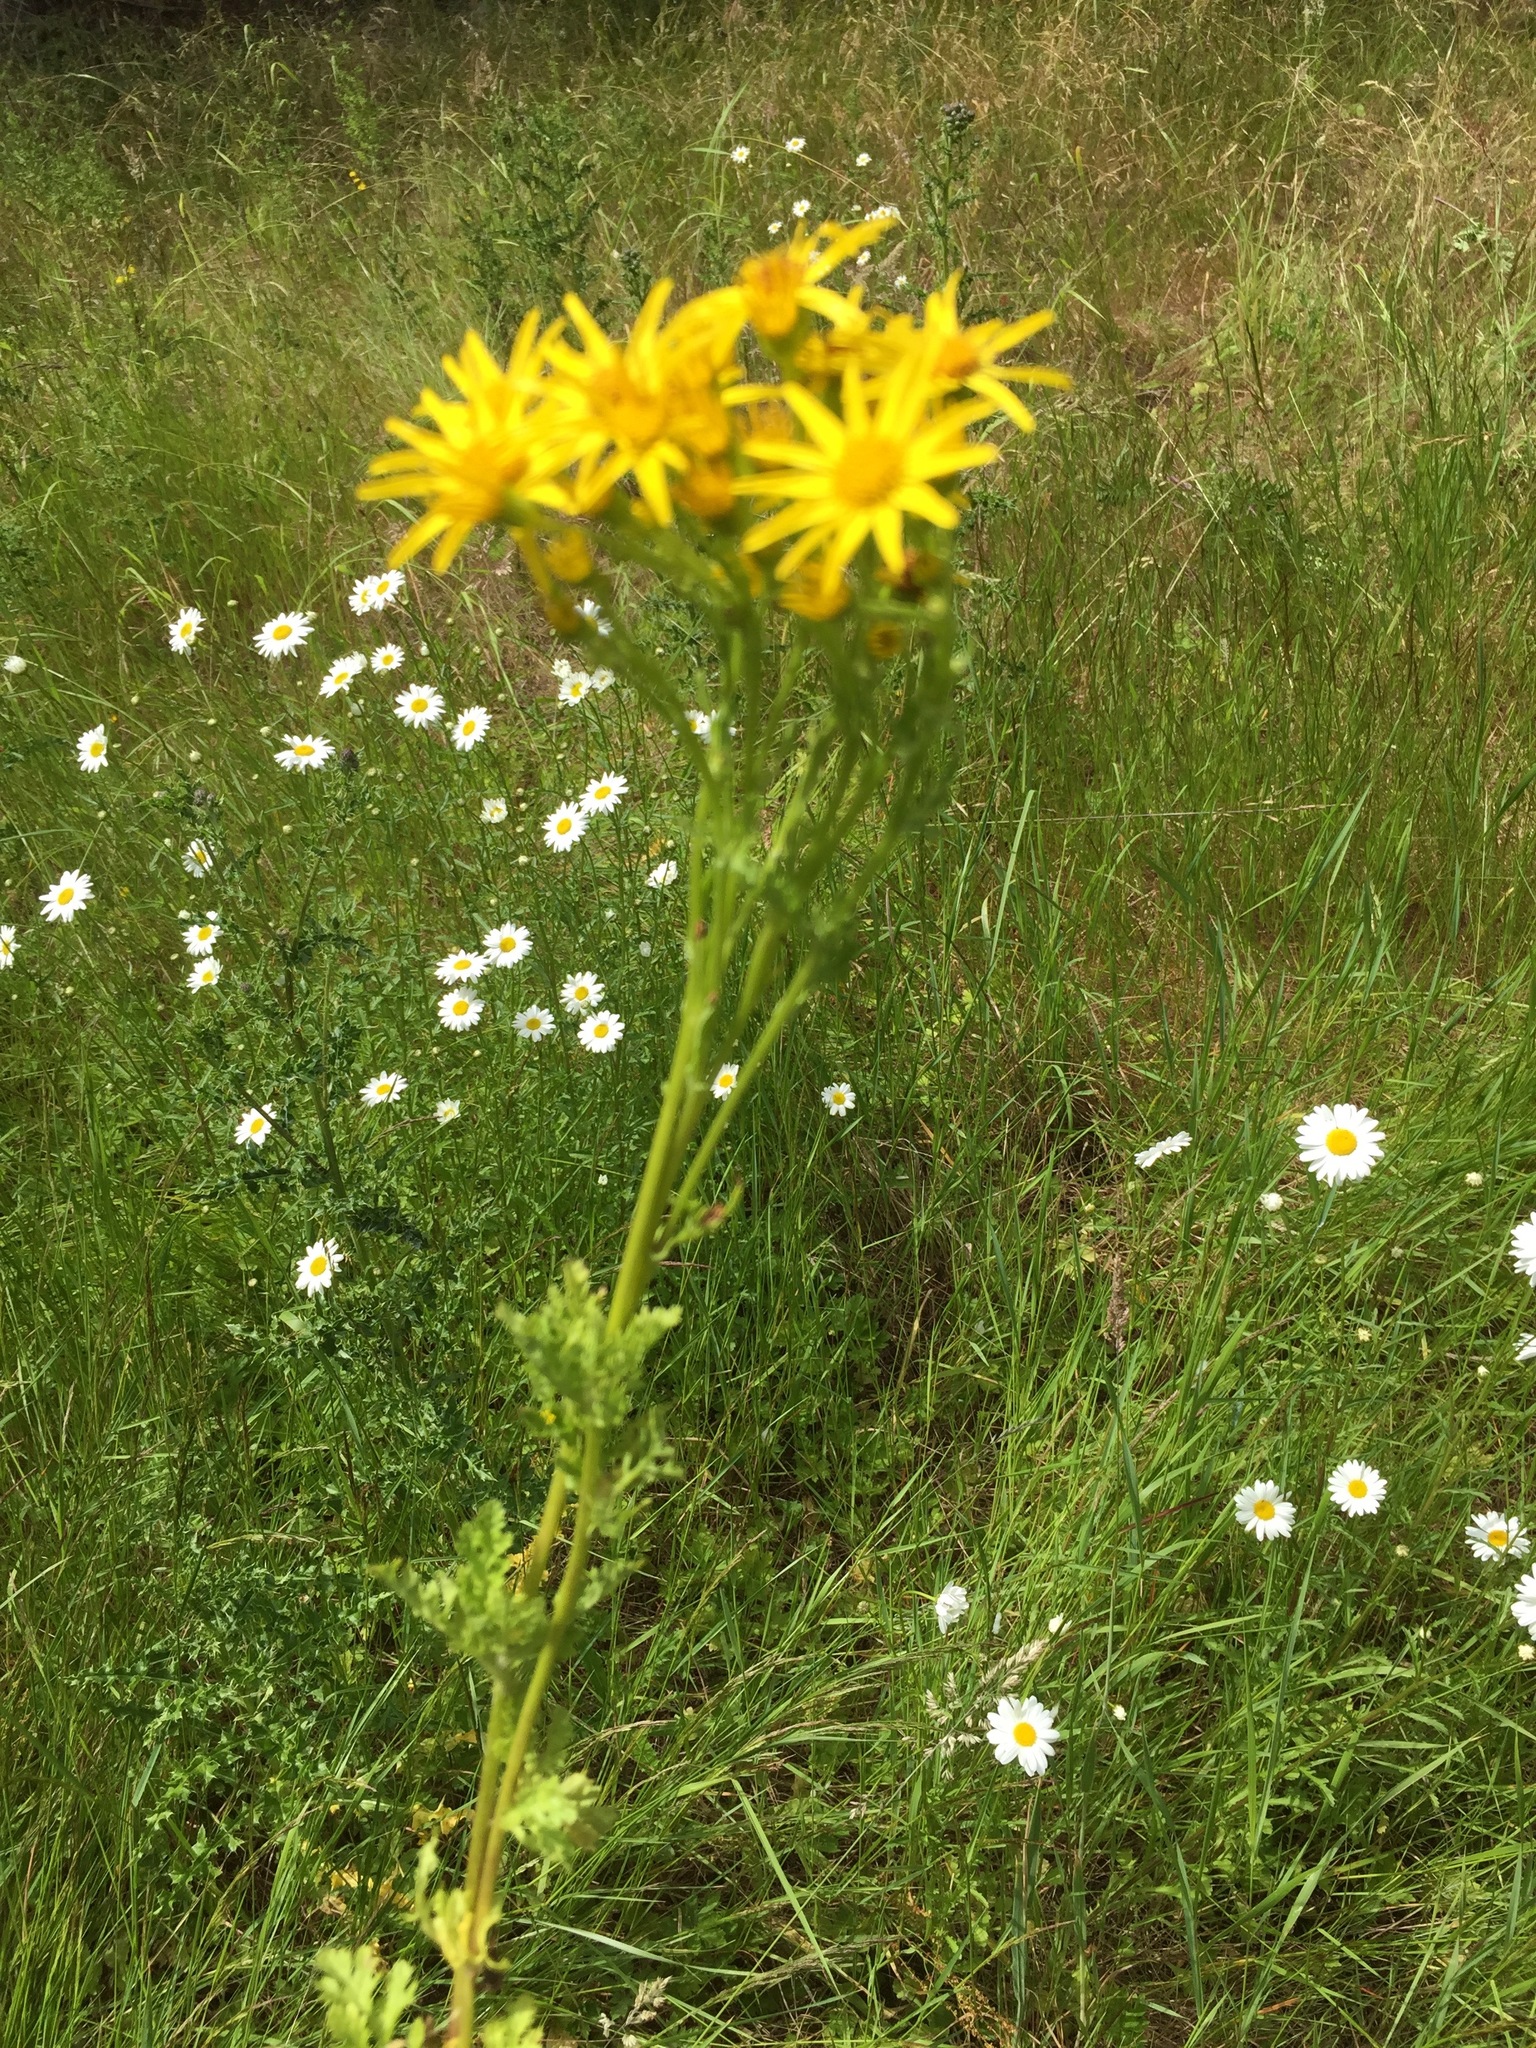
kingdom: Plantae
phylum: Tracheophyta
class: Magnoliopsida
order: Asterales
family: Asteraceae
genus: Jacobaea
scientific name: Jacobaea vulgaris
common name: Stinking willie
